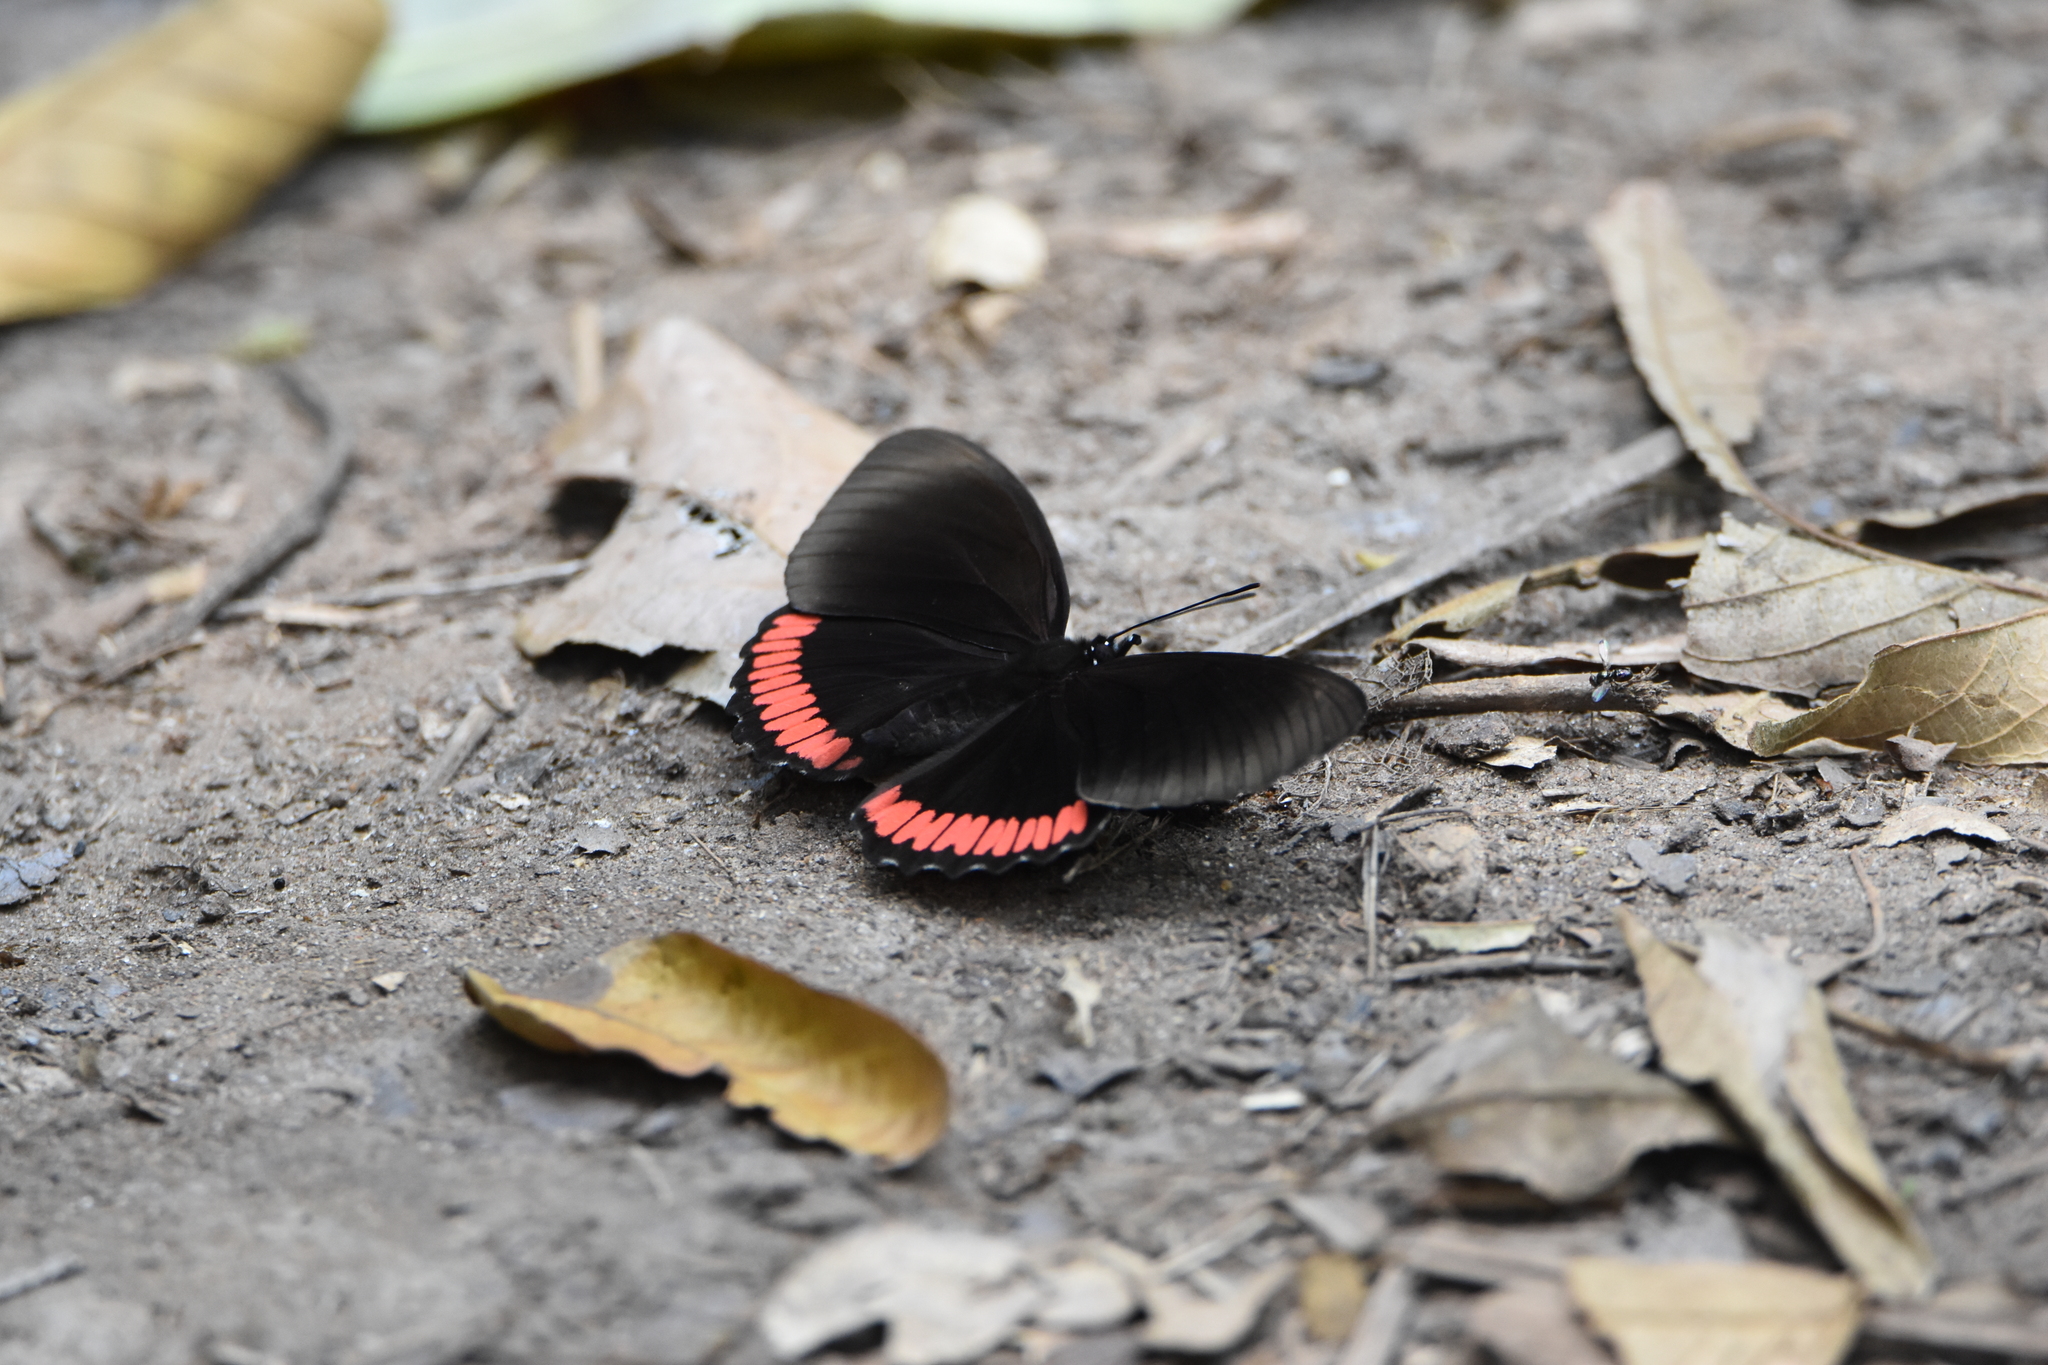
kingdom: Animalia
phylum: Arthropoda
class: Insecta
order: Lepidoptera
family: Sesiidae
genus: Sesia
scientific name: Sesia Biblis hyperia
